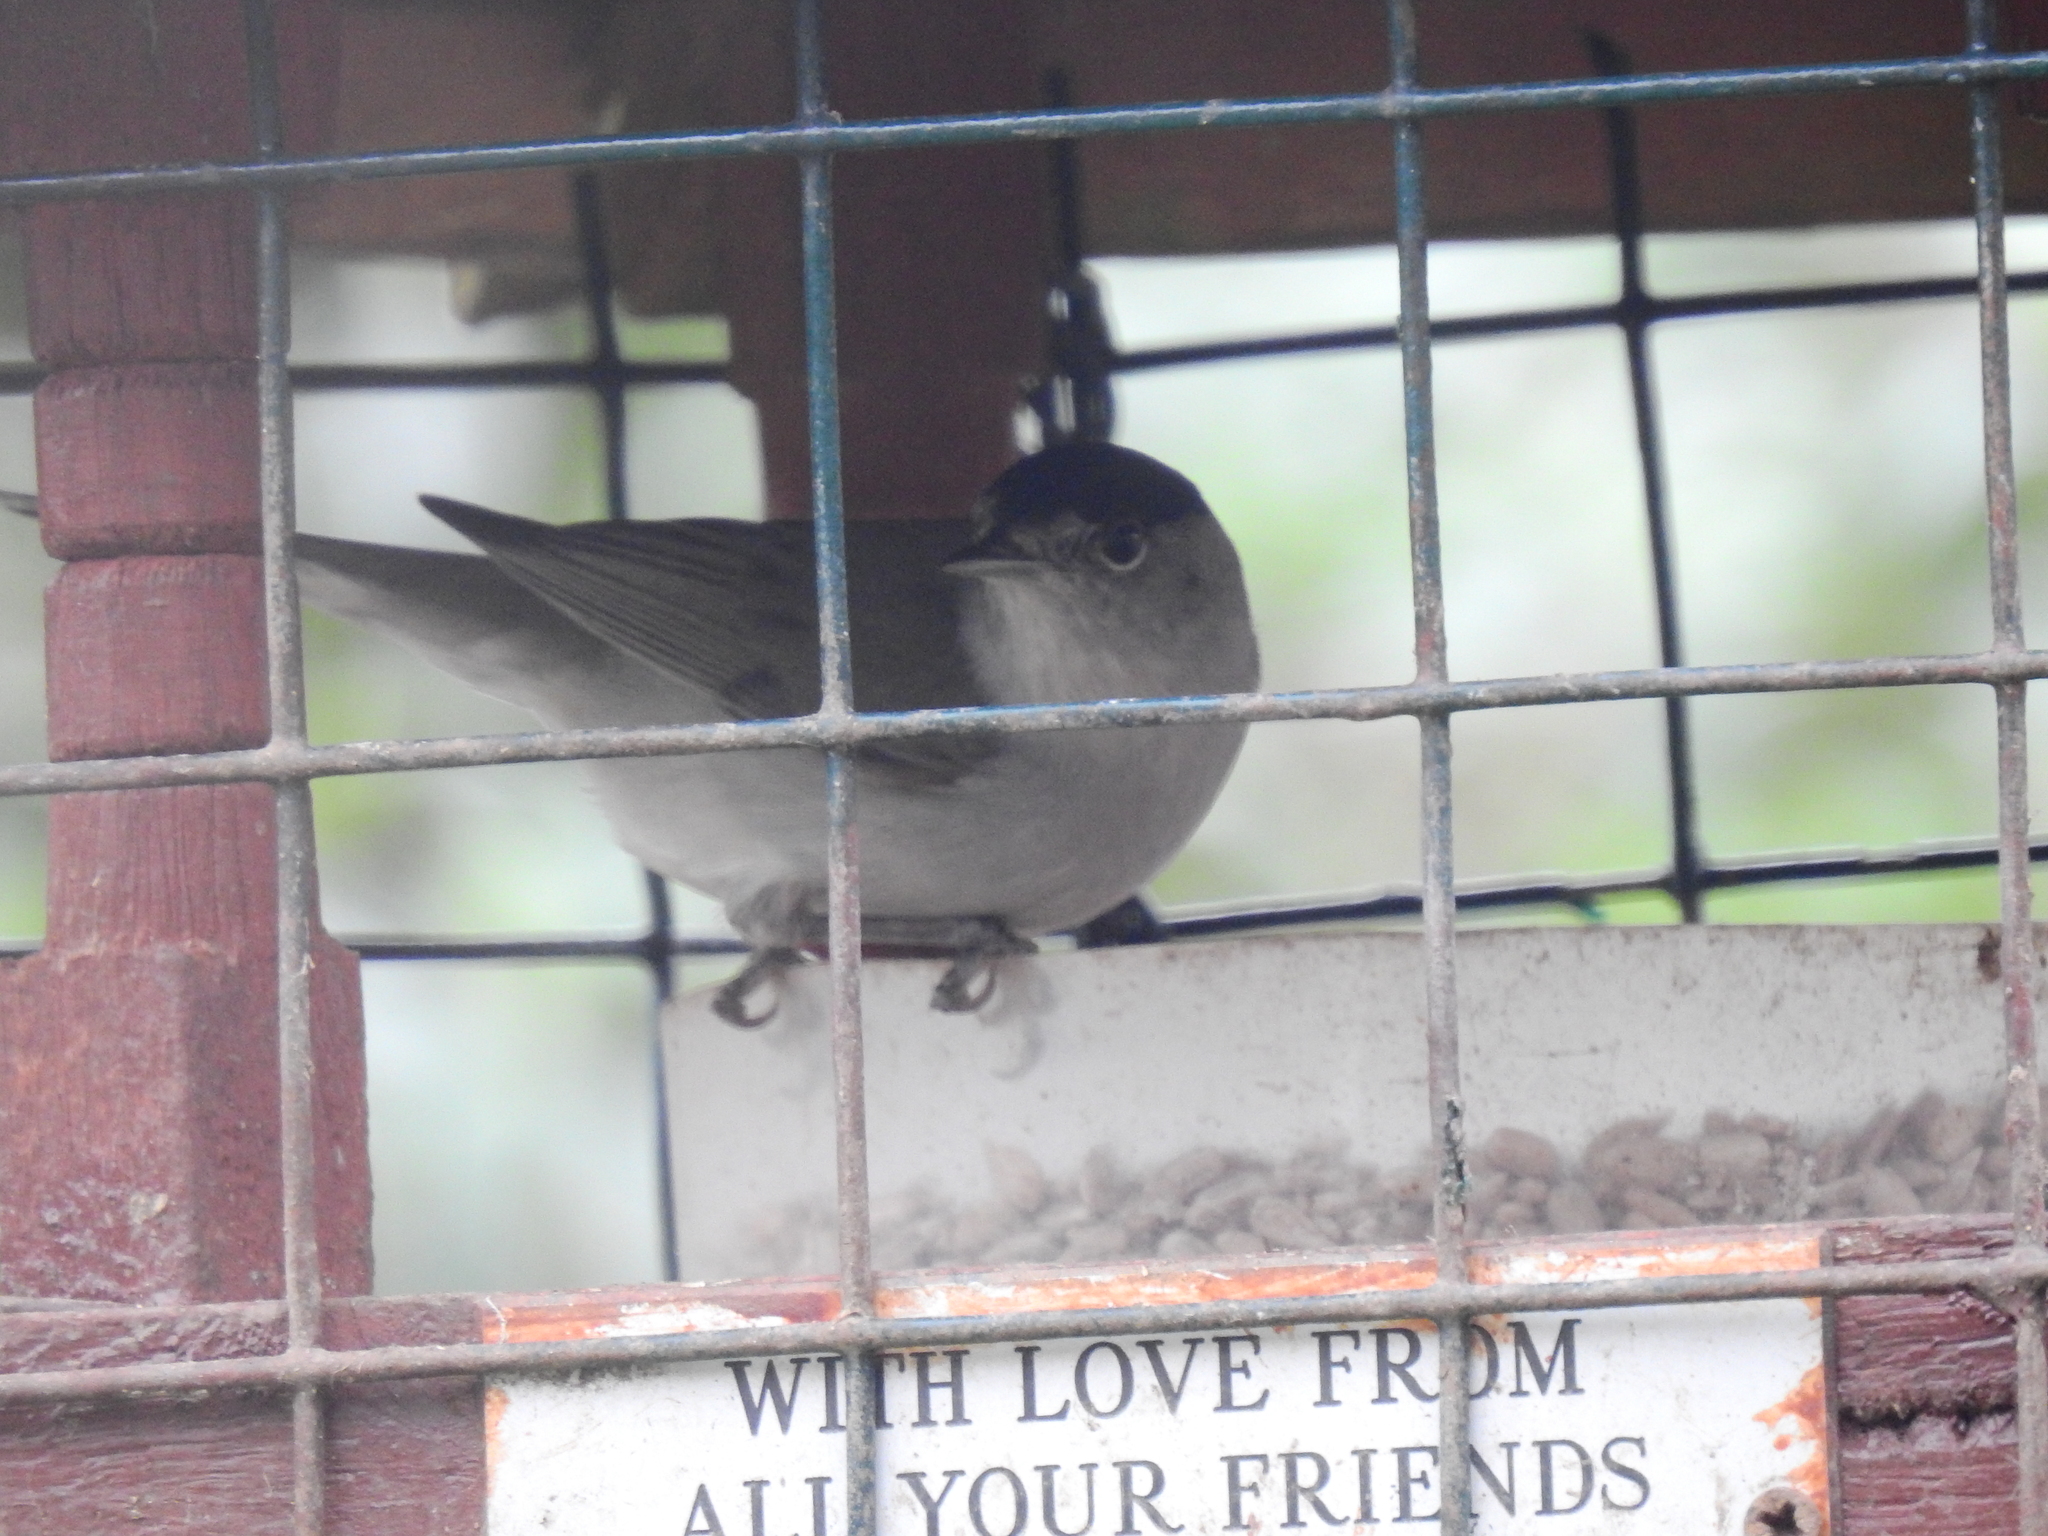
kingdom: Animalia
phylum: Chordata
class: Aves
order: Passeriformes
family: Sylviidae
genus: Sylvia
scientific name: Sylvia atricapilla
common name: Eurasian blackcap
